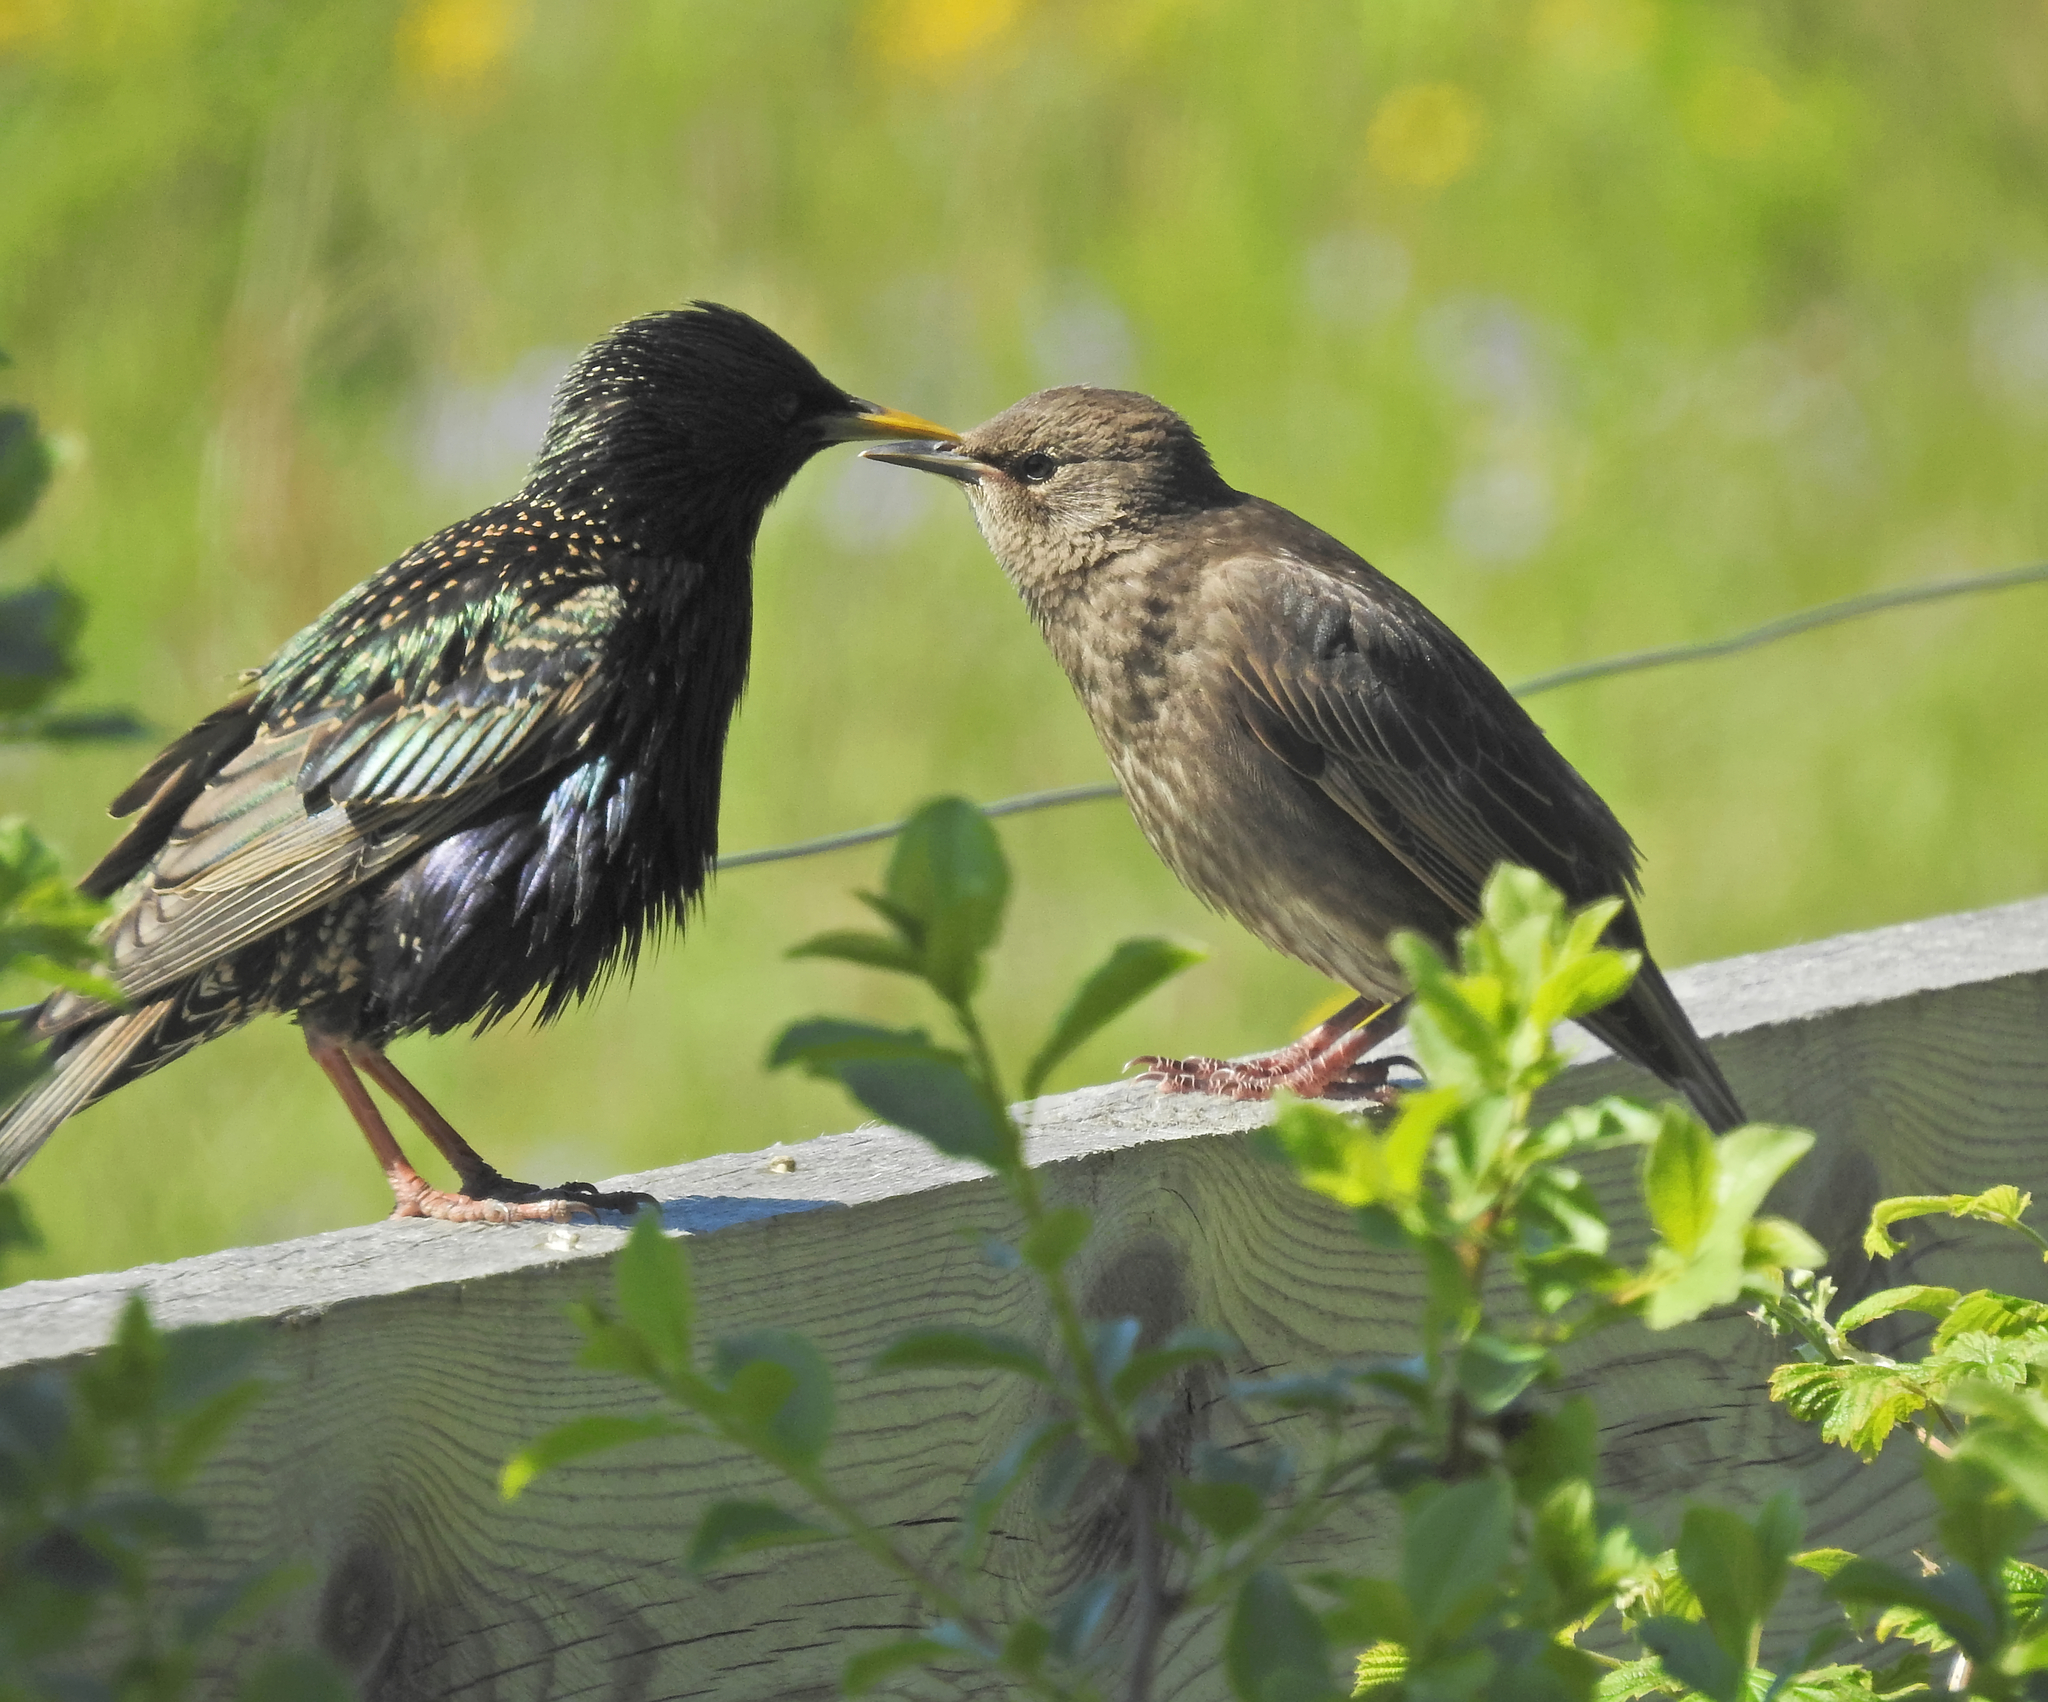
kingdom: Animalia
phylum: Chordata
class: Aves
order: Passeriformes
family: Sturnidae
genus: Sturnus
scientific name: Sturnus vulgaris
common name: Common starling
